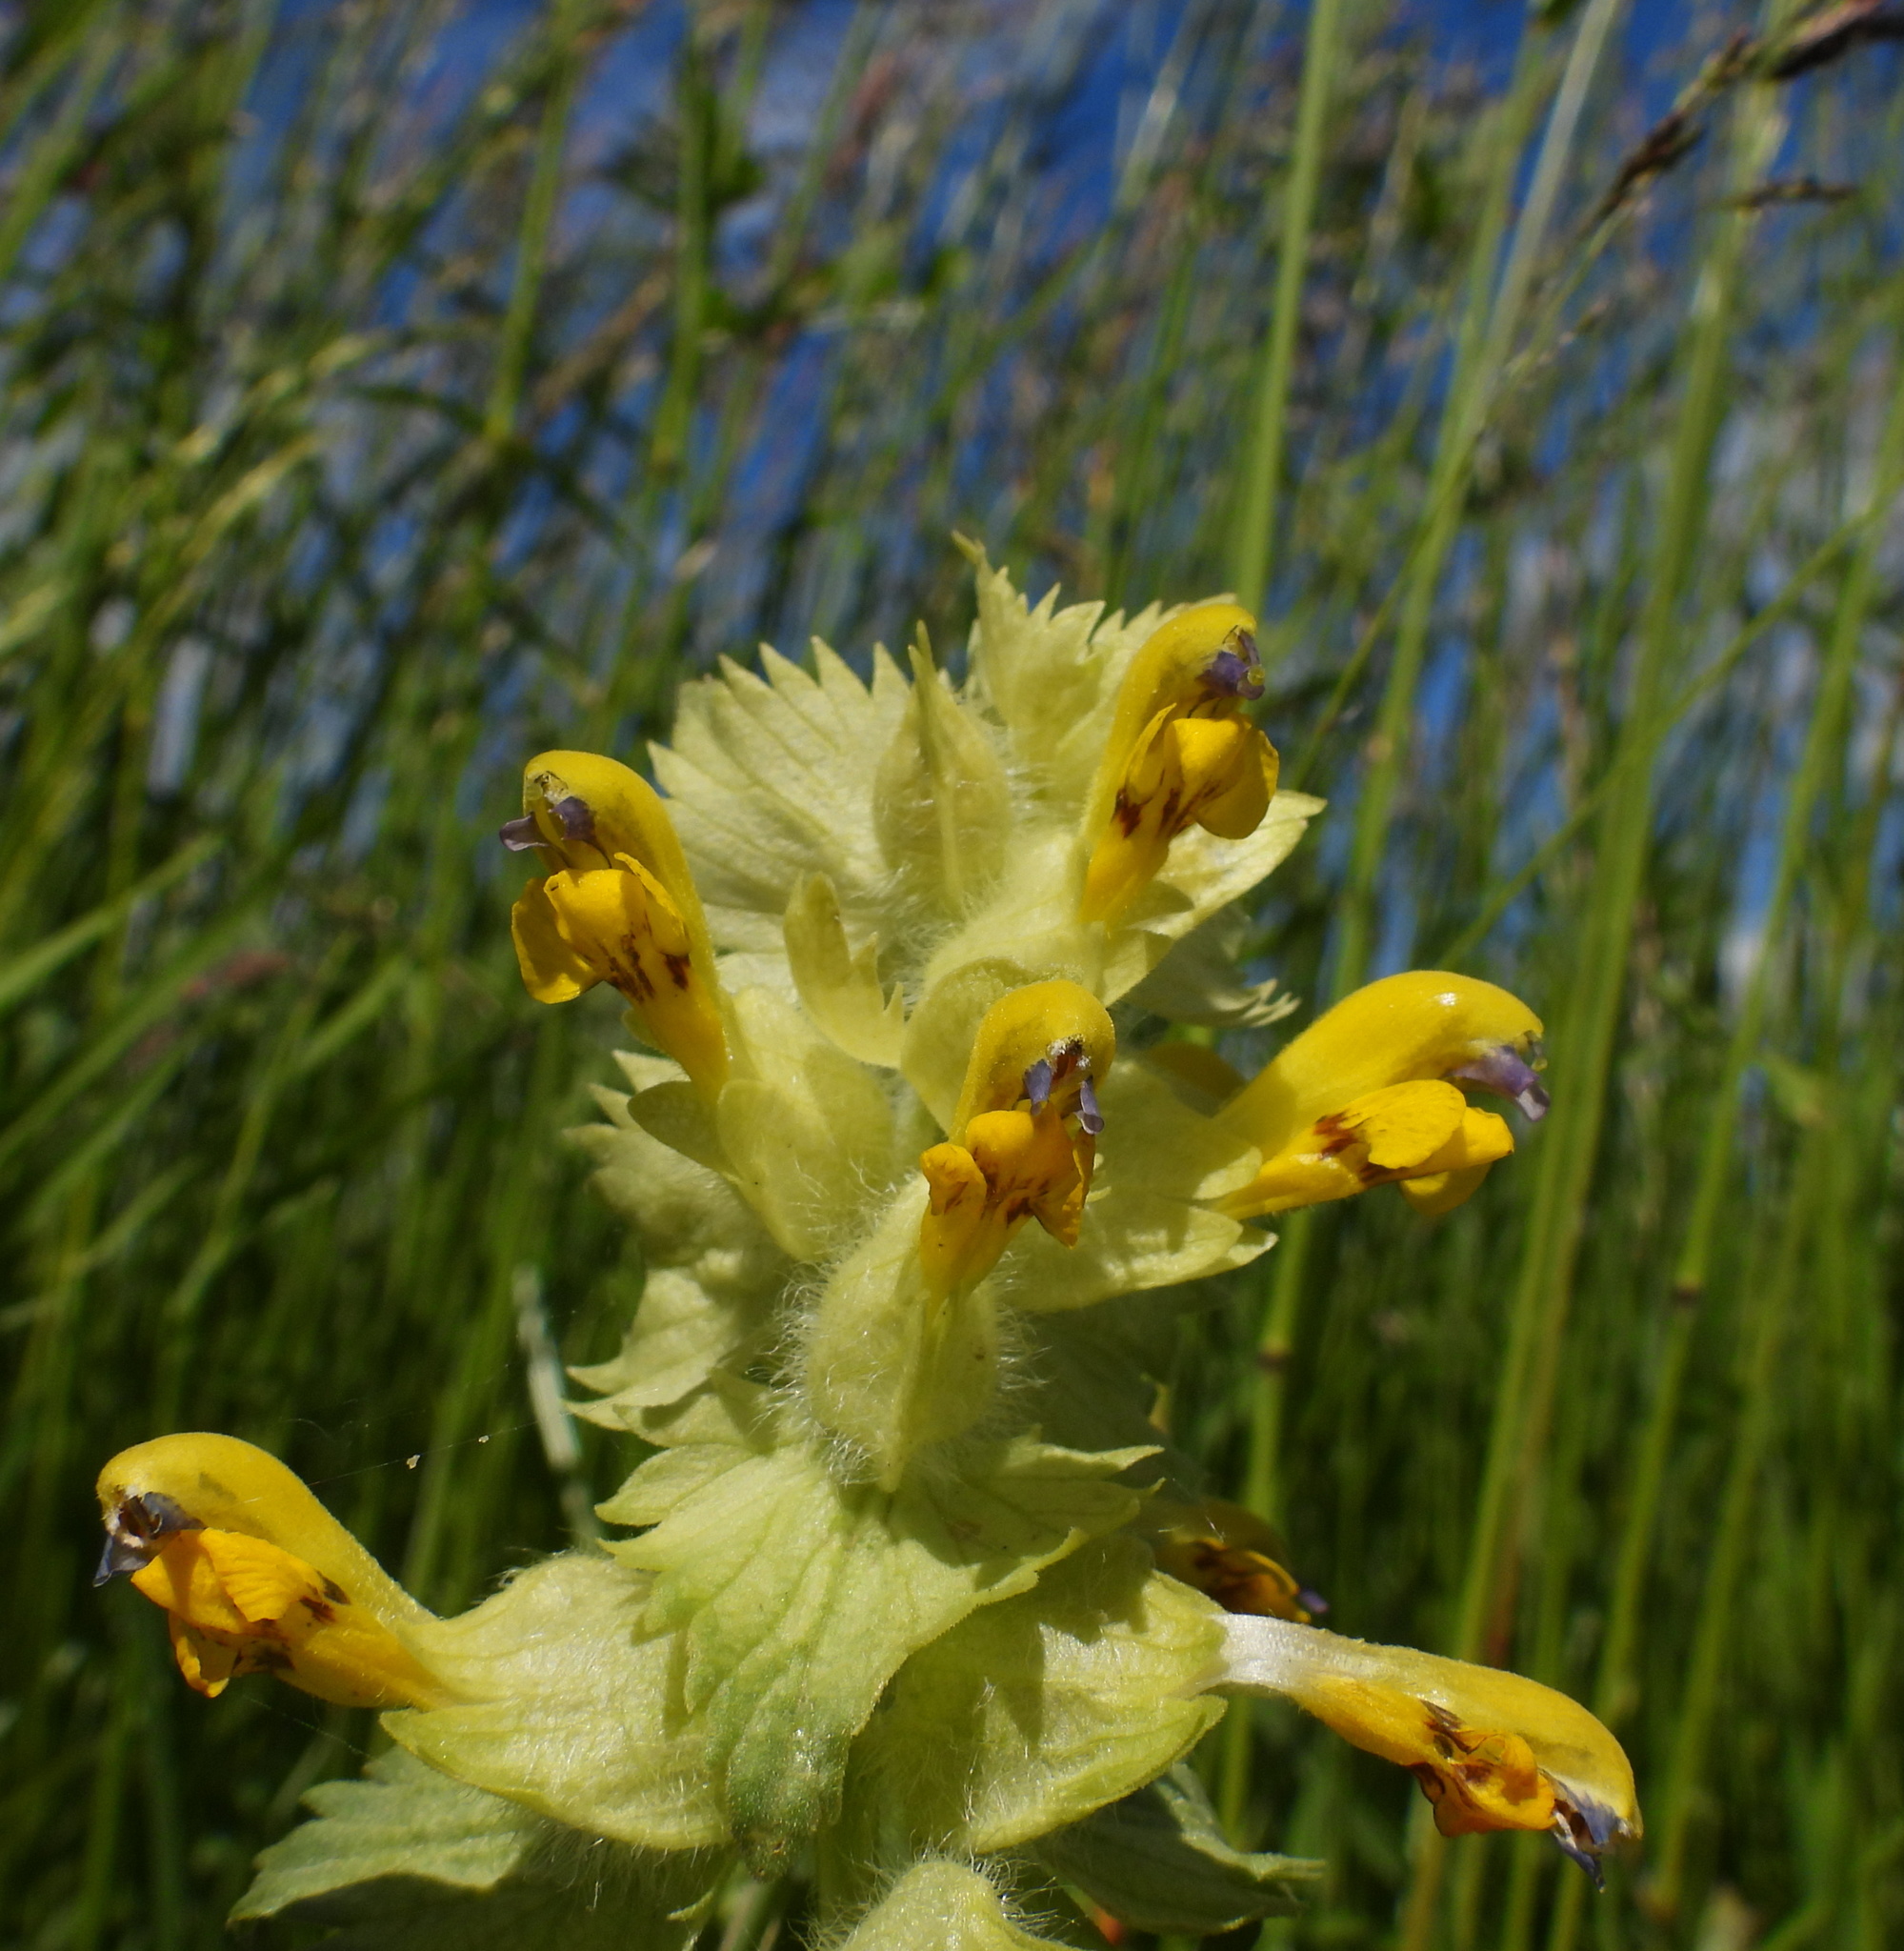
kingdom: Plantae
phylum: Tracheophyta
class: Magnoliopsida
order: Lamiales
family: Orobanchaceae
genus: Rhinanthus
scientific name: Rhinanthus alectorolophus
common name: Greater yellow-rattle
